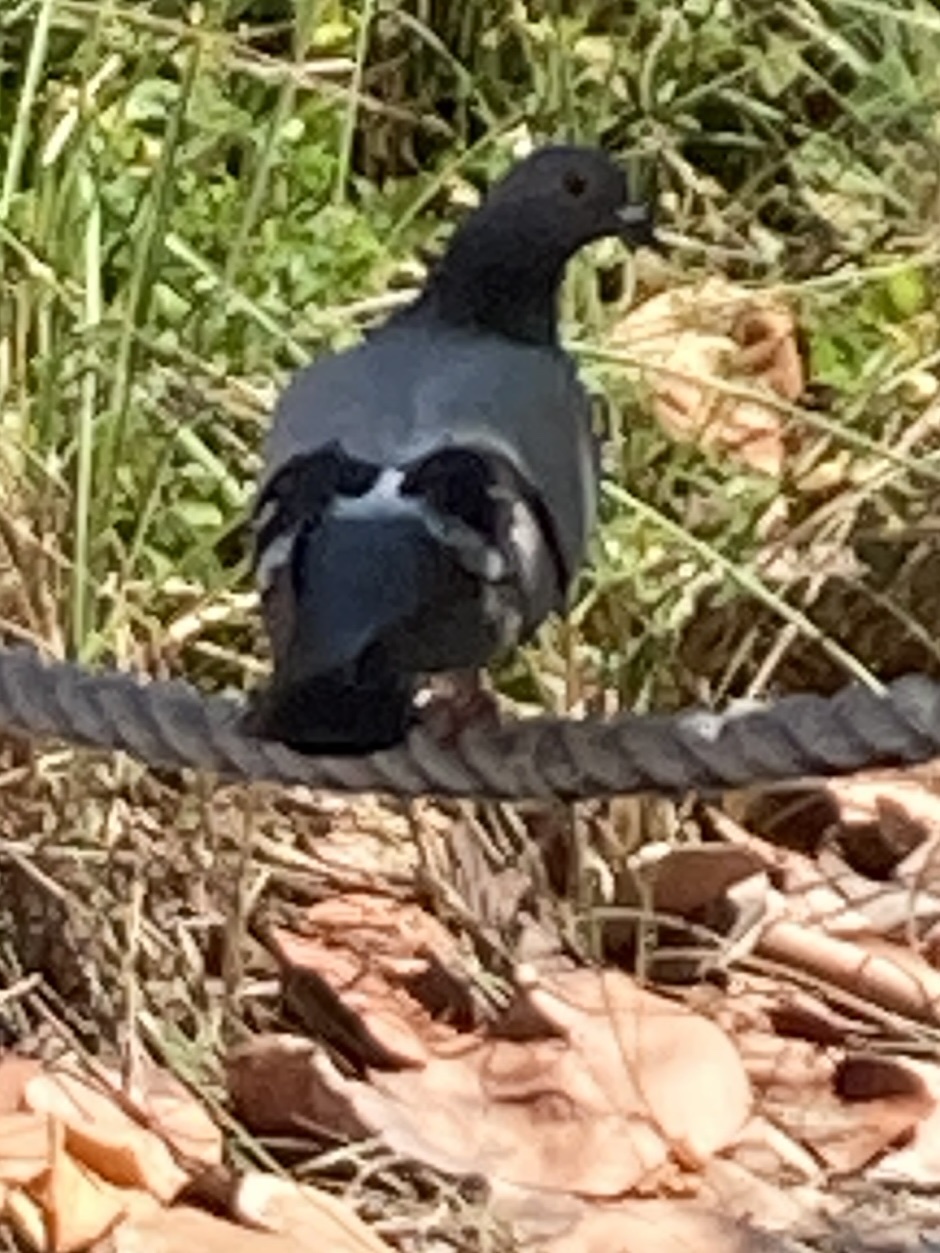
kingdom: Animalia
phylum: Chordata
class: Aves
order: Columbiformes
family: Columbidae
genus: Columba
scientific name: Columba livia
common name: Rock pigeon
